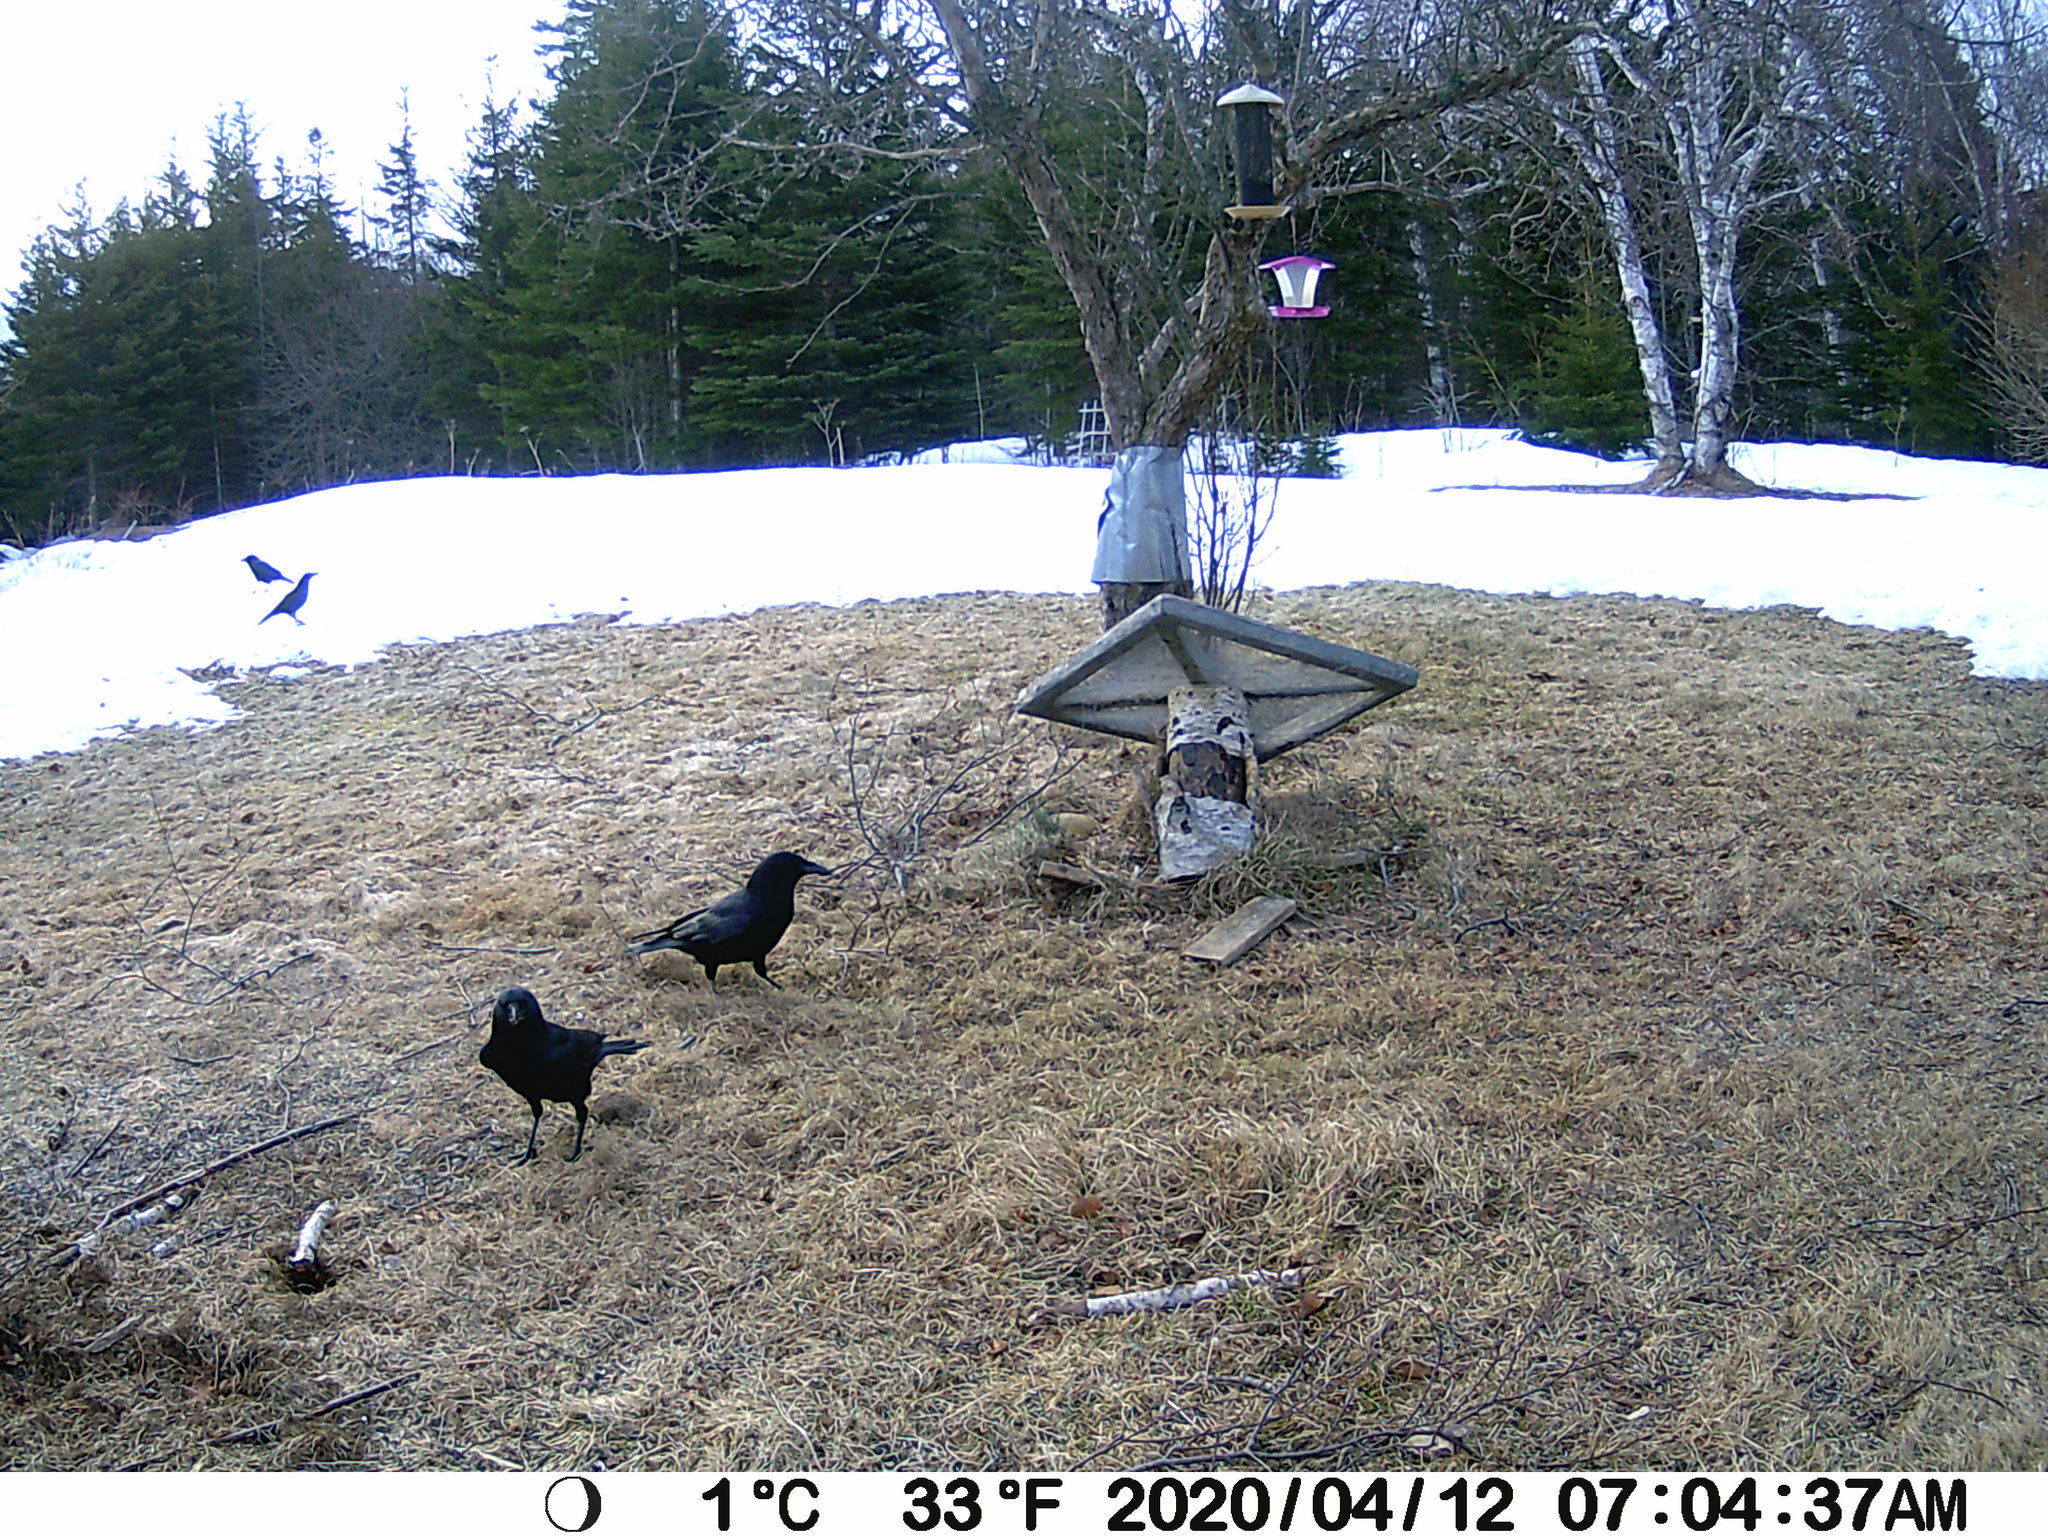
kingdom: Animalia
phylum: Chordata
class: Aves
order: Passeriformes
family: Corvidae
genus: Corvus
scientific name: Corvus brachyrhynchos
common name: American crow
